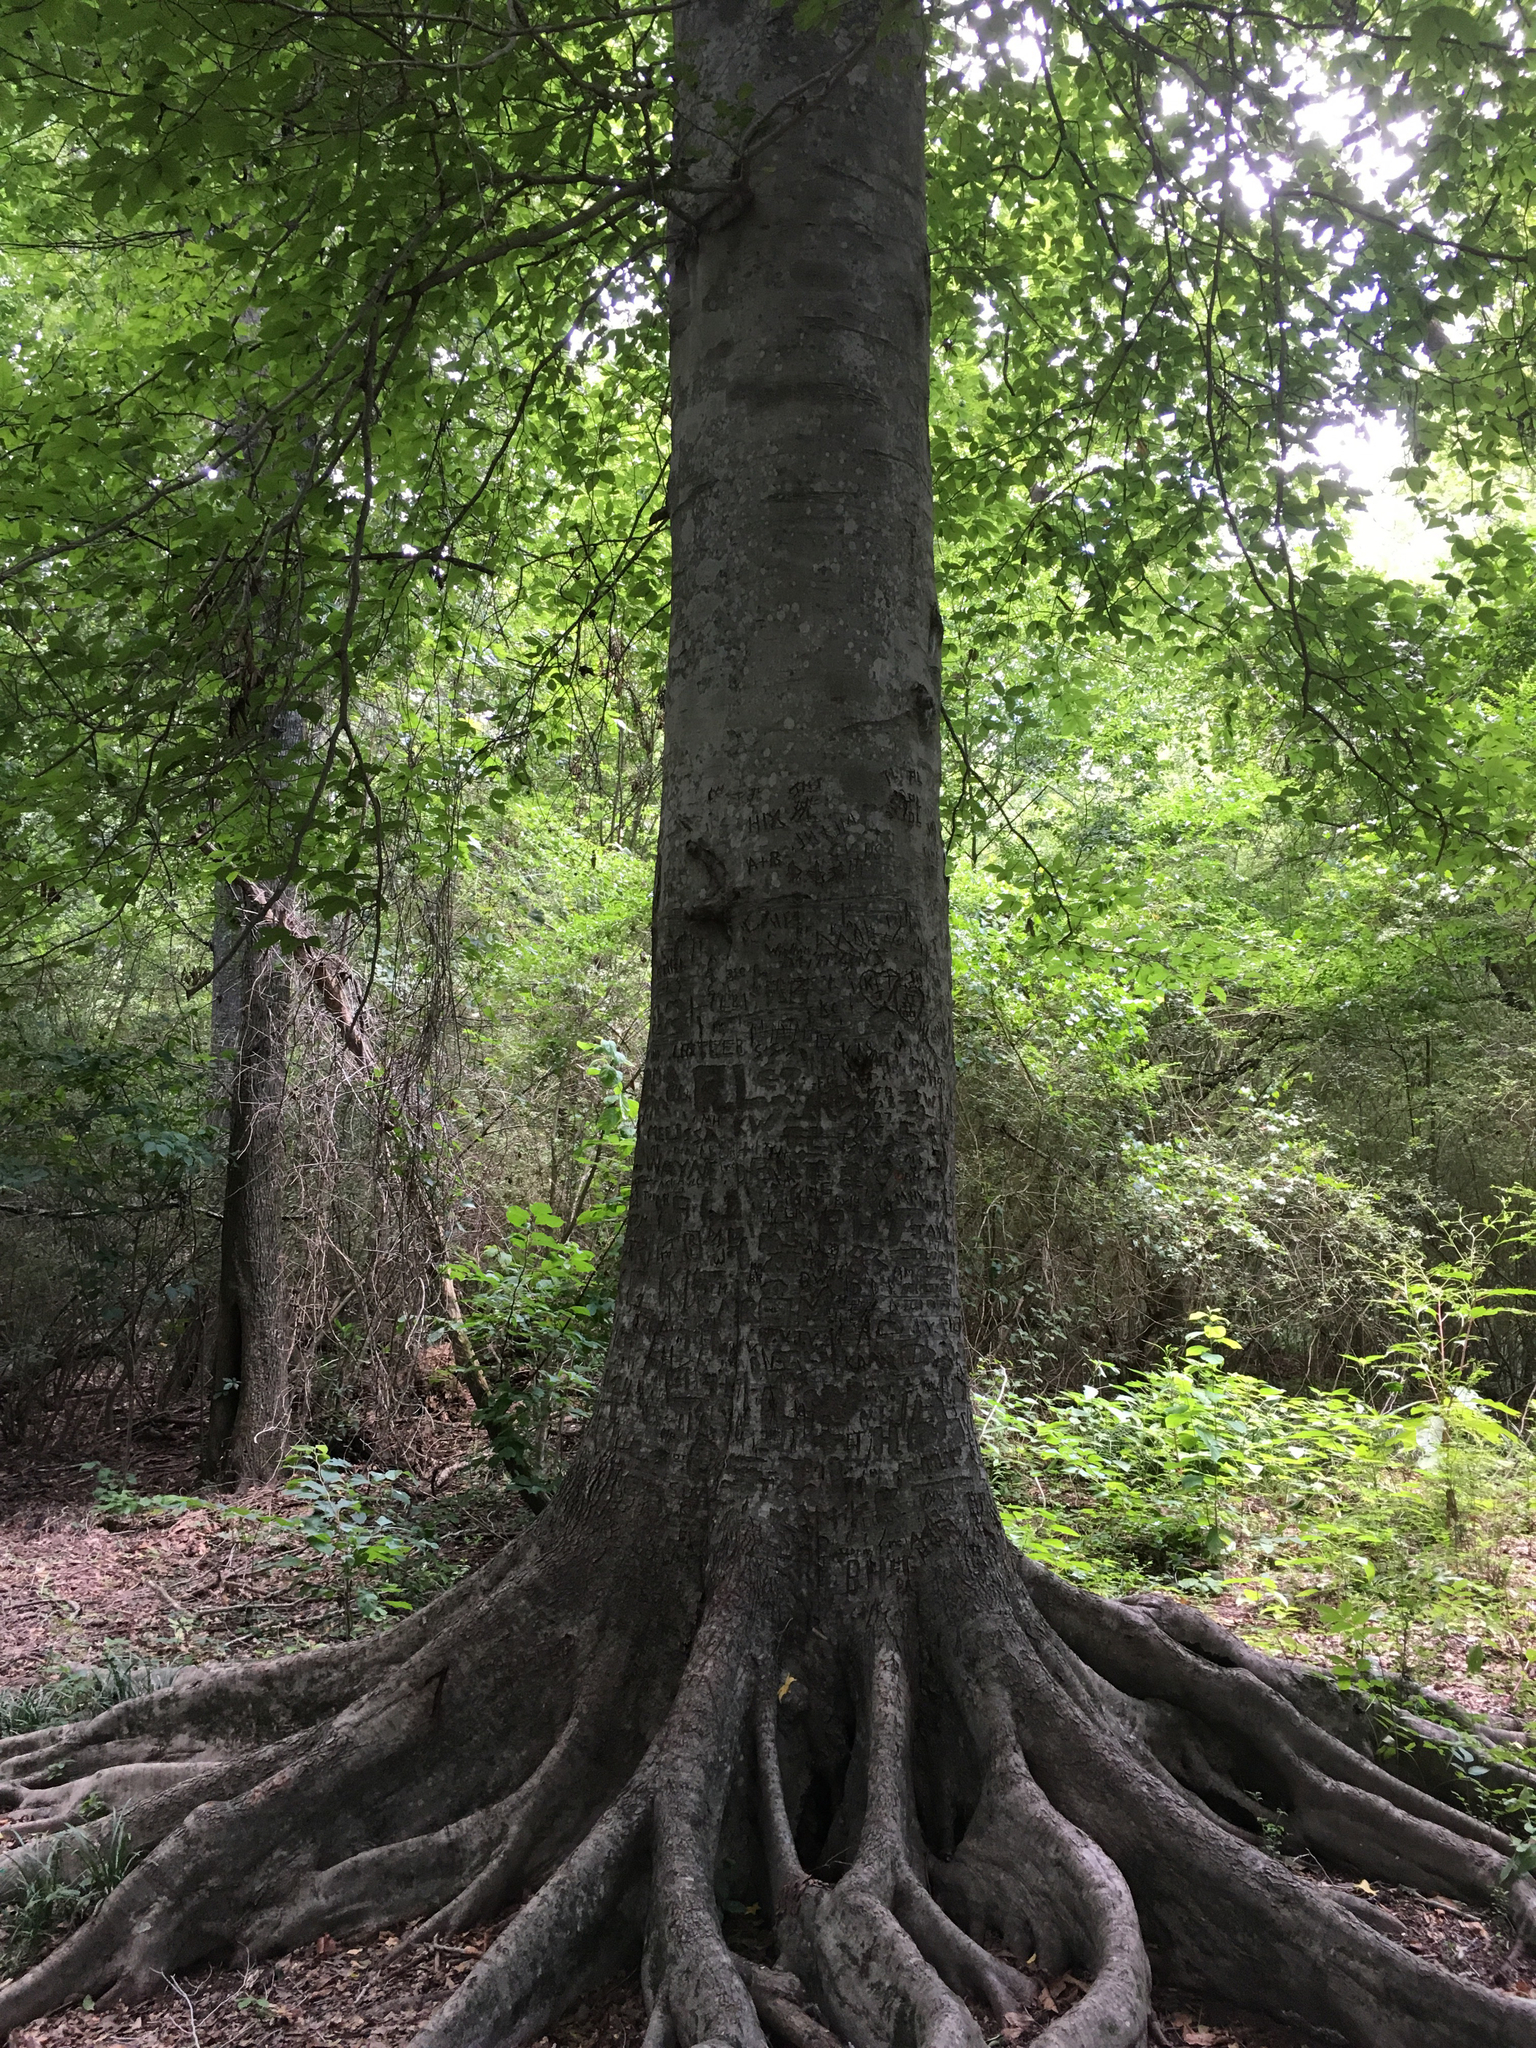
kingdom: Plantae
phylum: Tracheophyta
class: Magnoliopsida
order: Fagales
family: Fagaceae
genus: Fagus
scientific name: Fagus grandifolia
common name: American beech
